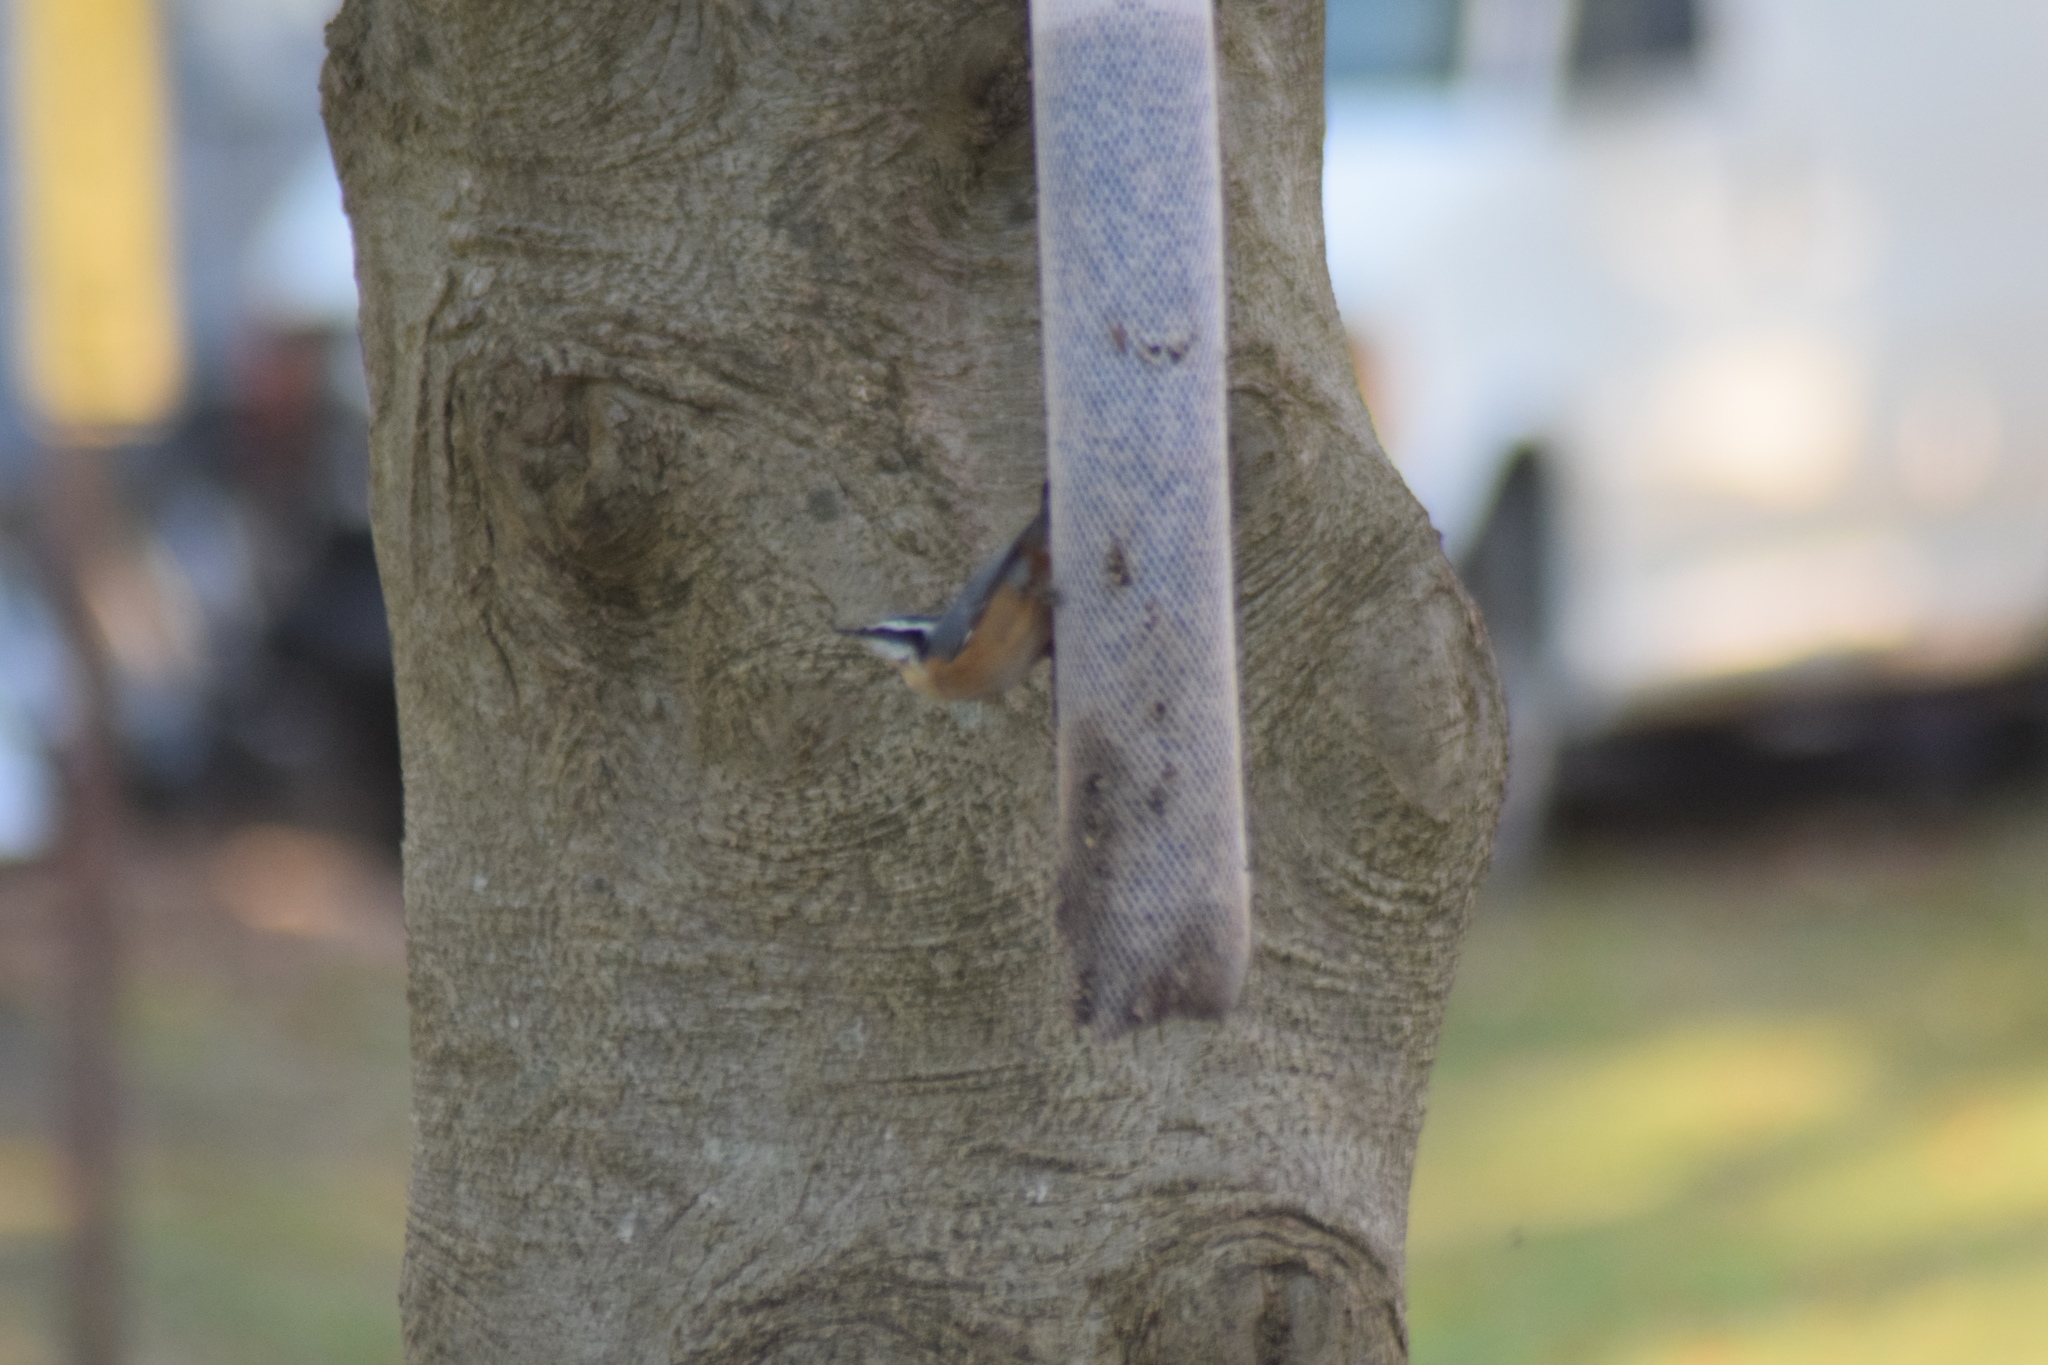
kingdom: Animalia
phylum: Chordata
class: Aves
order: Passeriformes
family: Sittidae
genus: Sitta
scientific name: Sitta canadensis
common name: Red-breasted nuthatch
